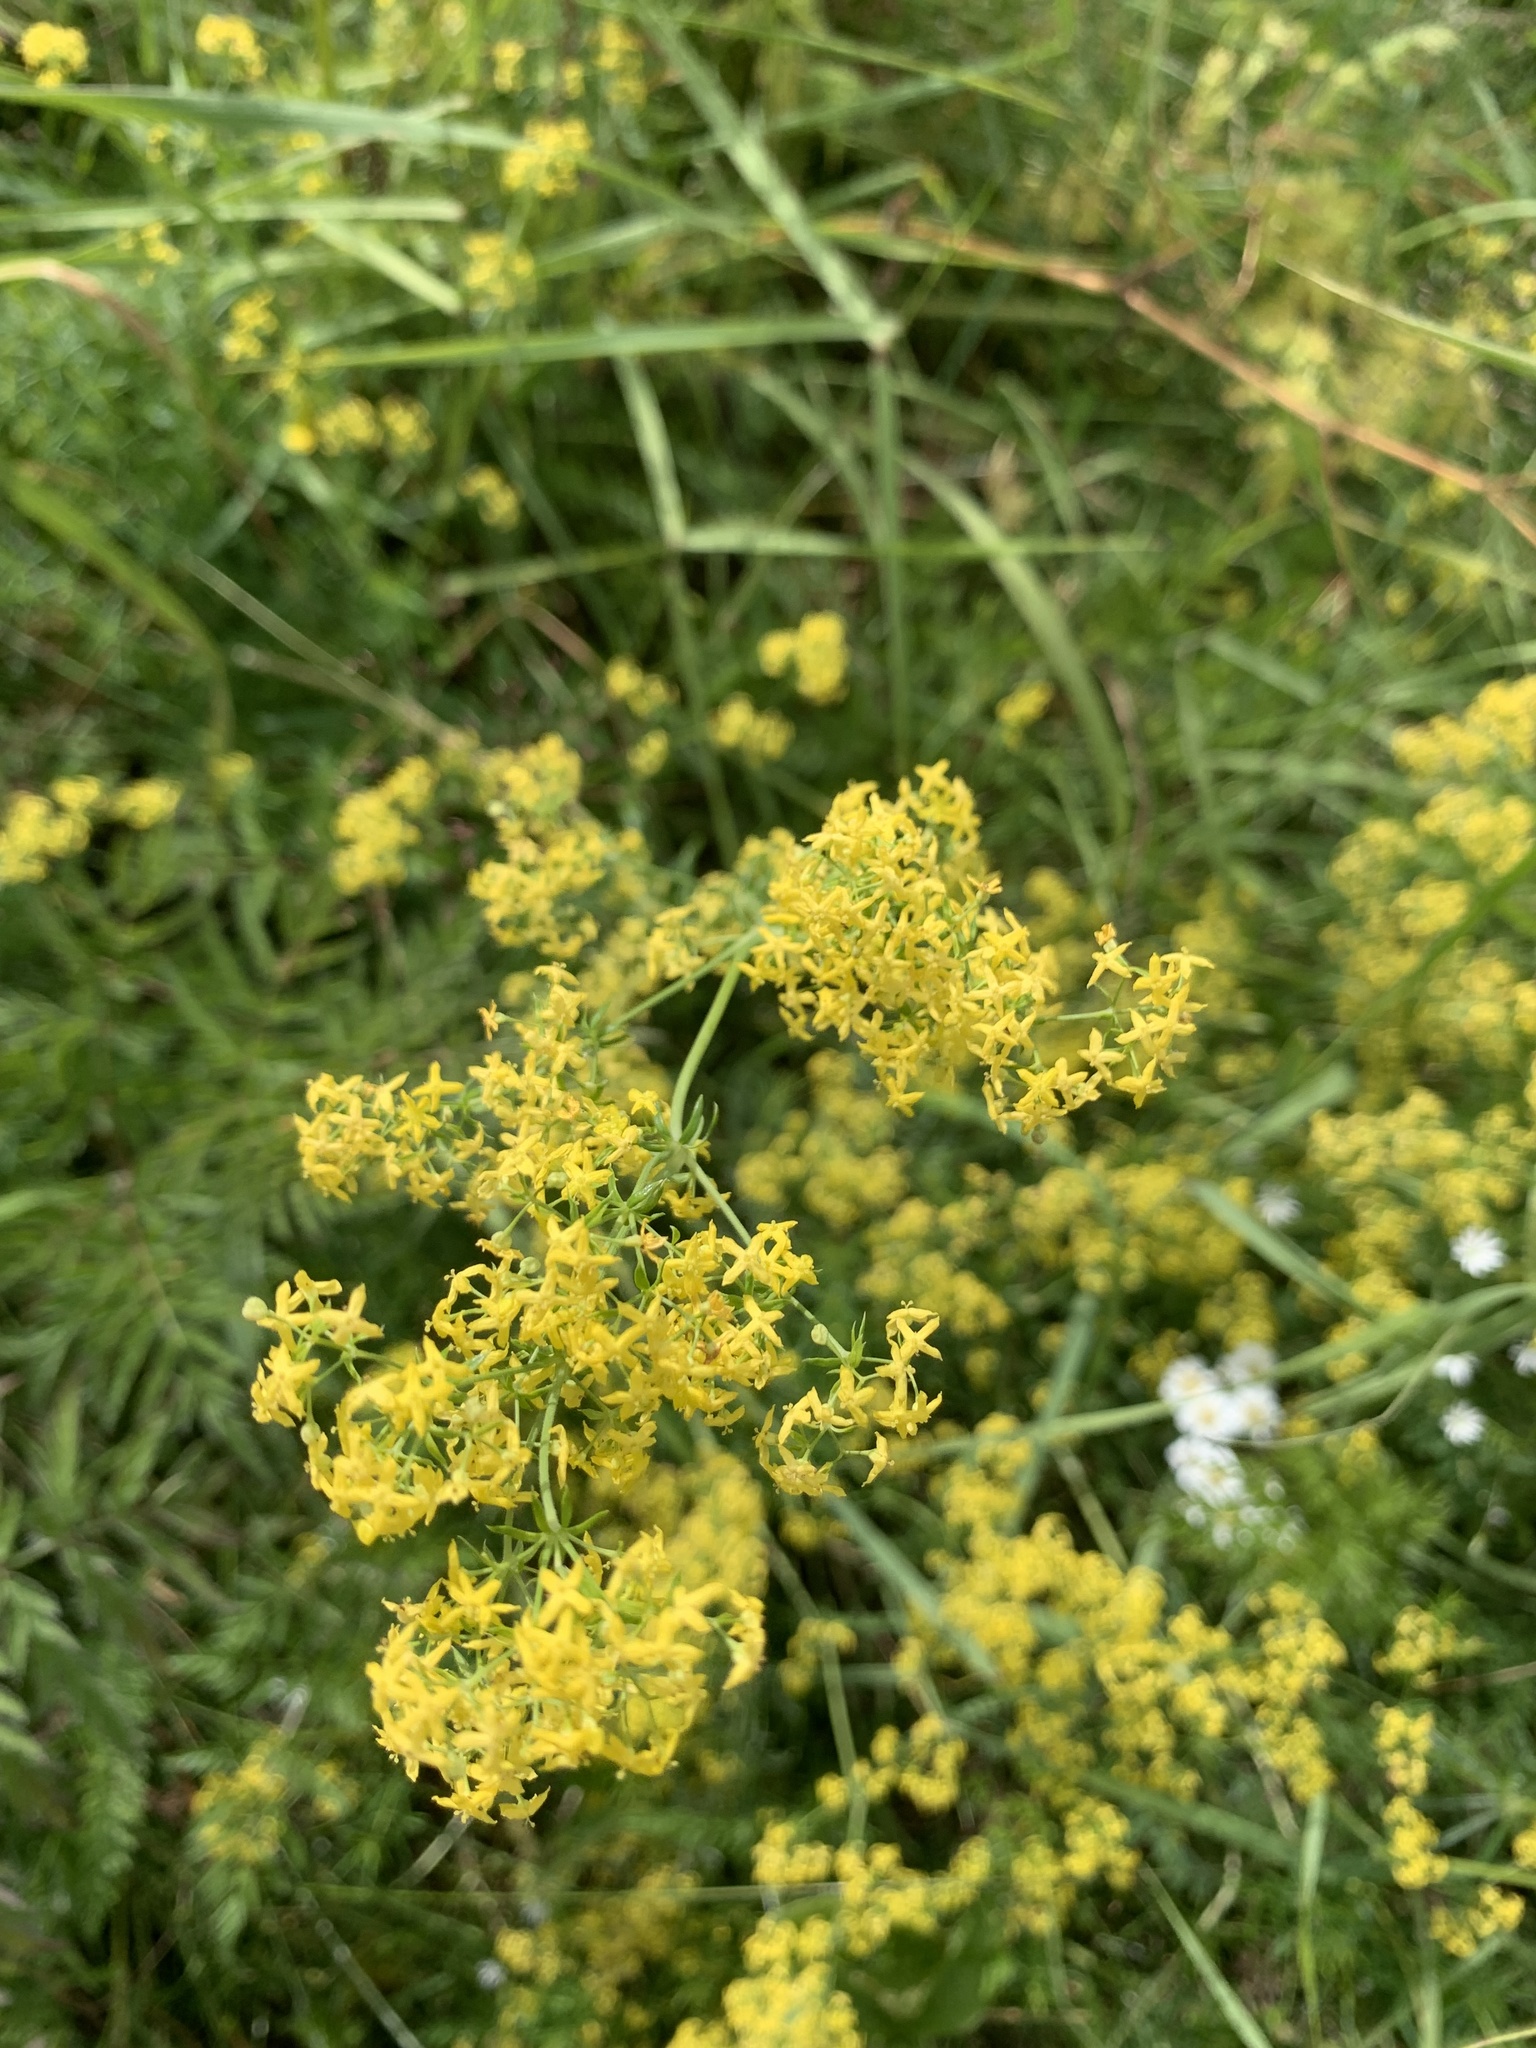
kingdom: Plantae
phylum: Tracheophyta
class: Magnoliopsida
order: Gentianales
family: Rubiaceae
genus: Galium
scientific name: Galium verum
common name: Lady's bedstraw
